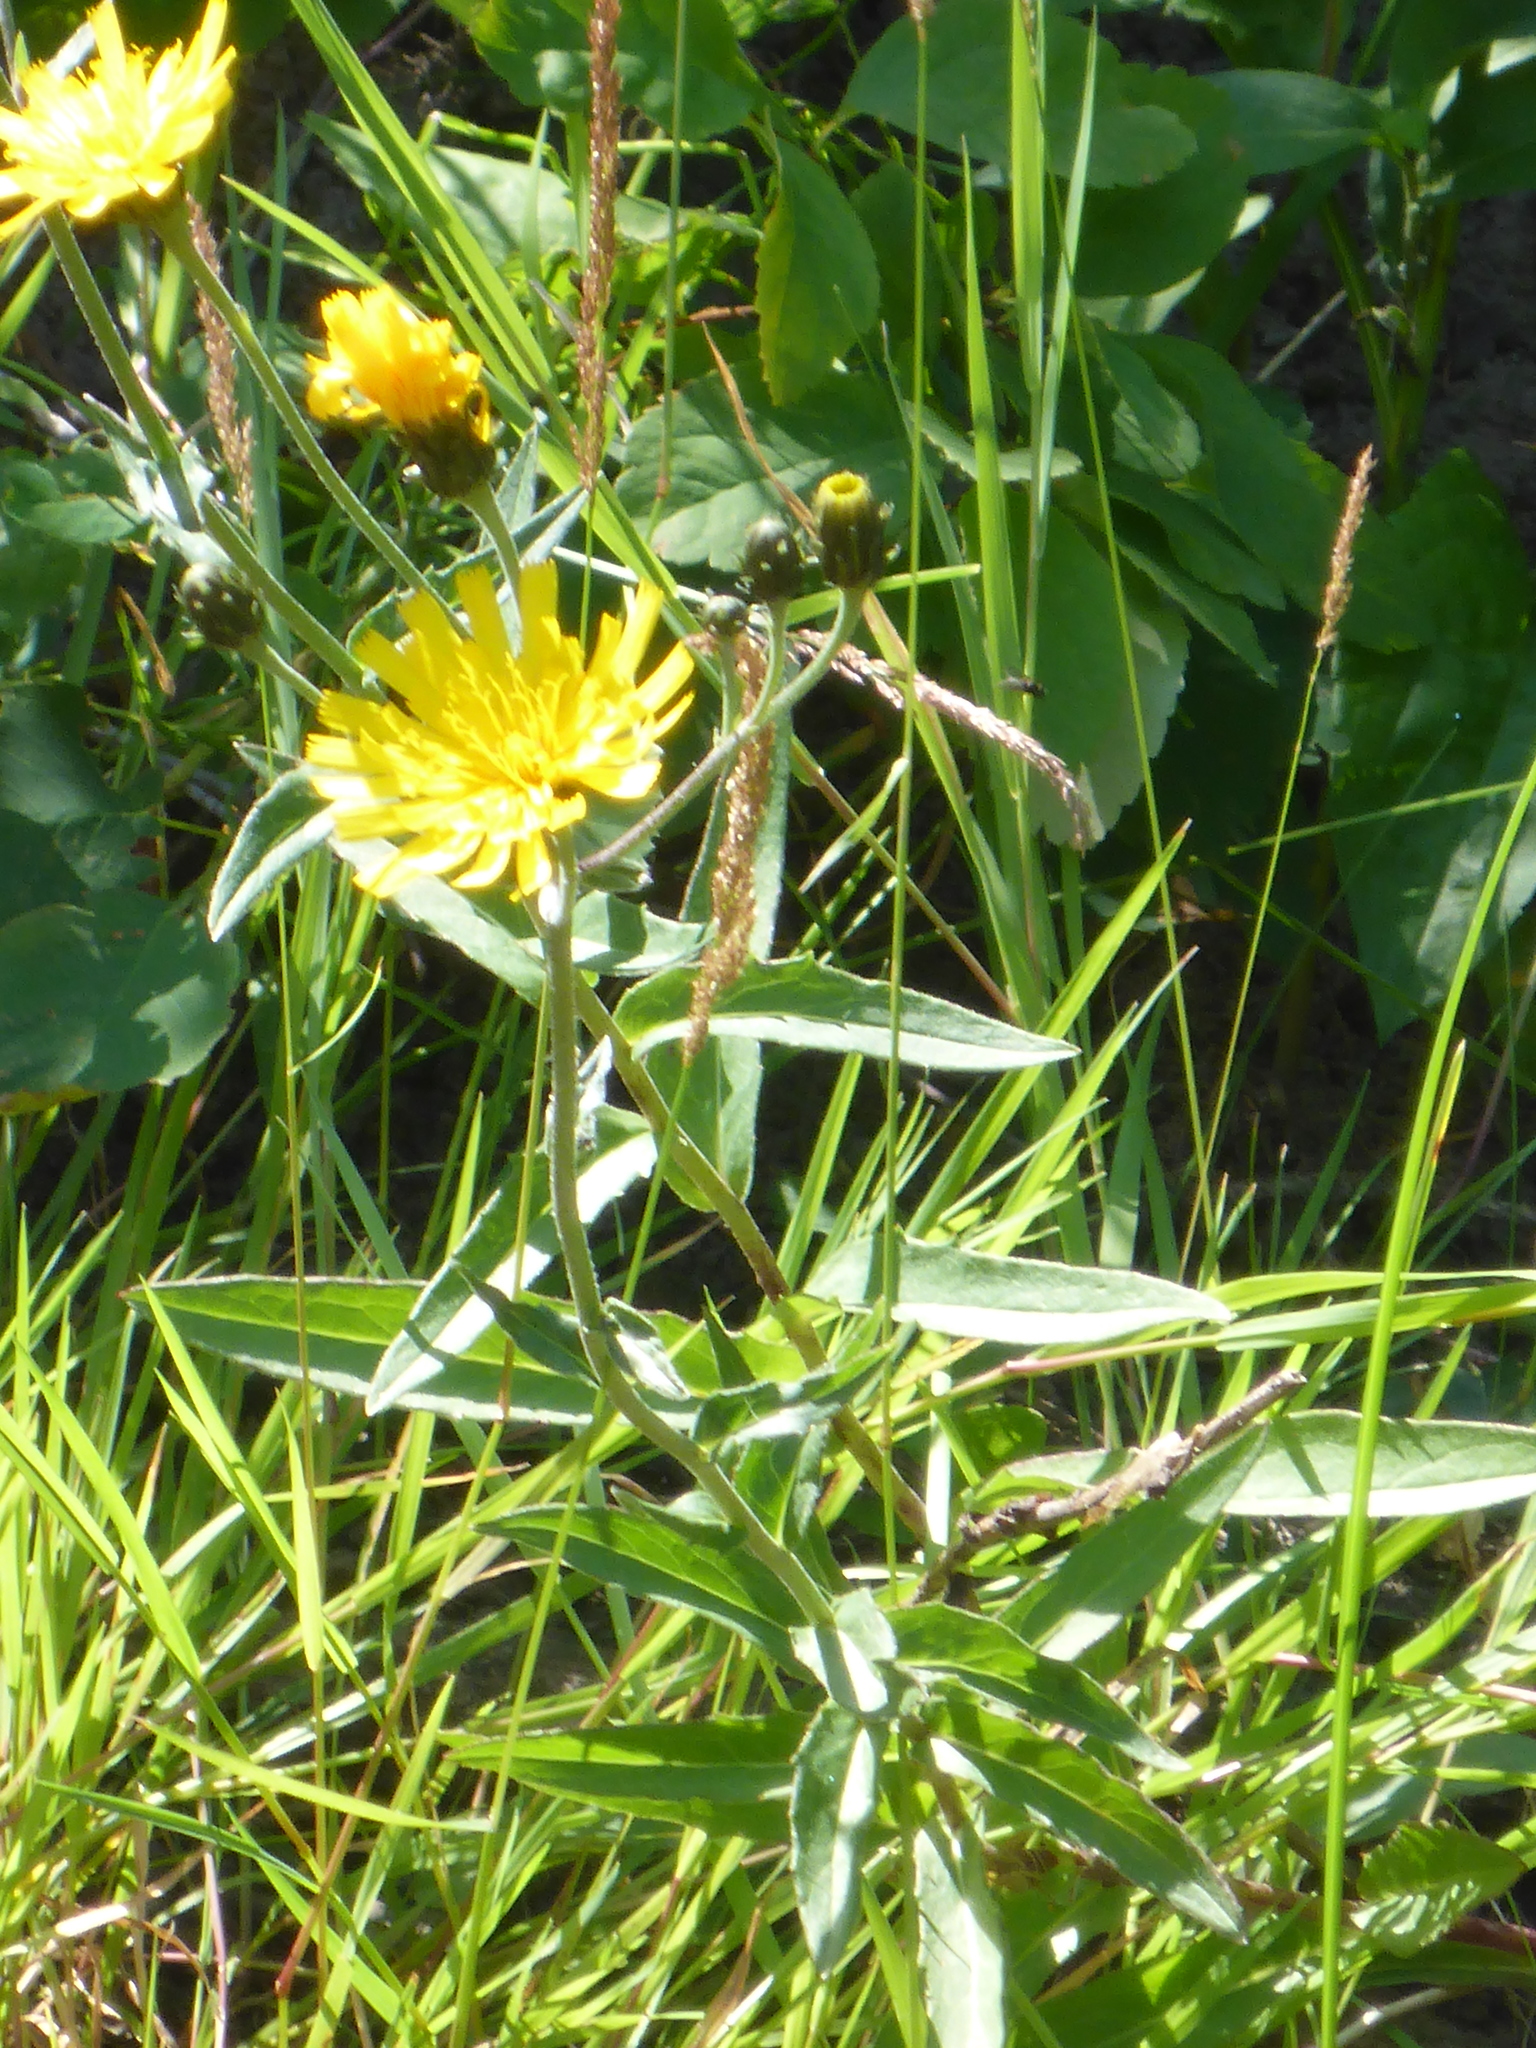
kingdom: Plantae
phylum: Tracheophyta
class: Magnoliopsida
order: Asterales
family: Asteraceae
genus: Hieracium
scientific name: Hieracium umbellatum
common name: Northern hawkweed
